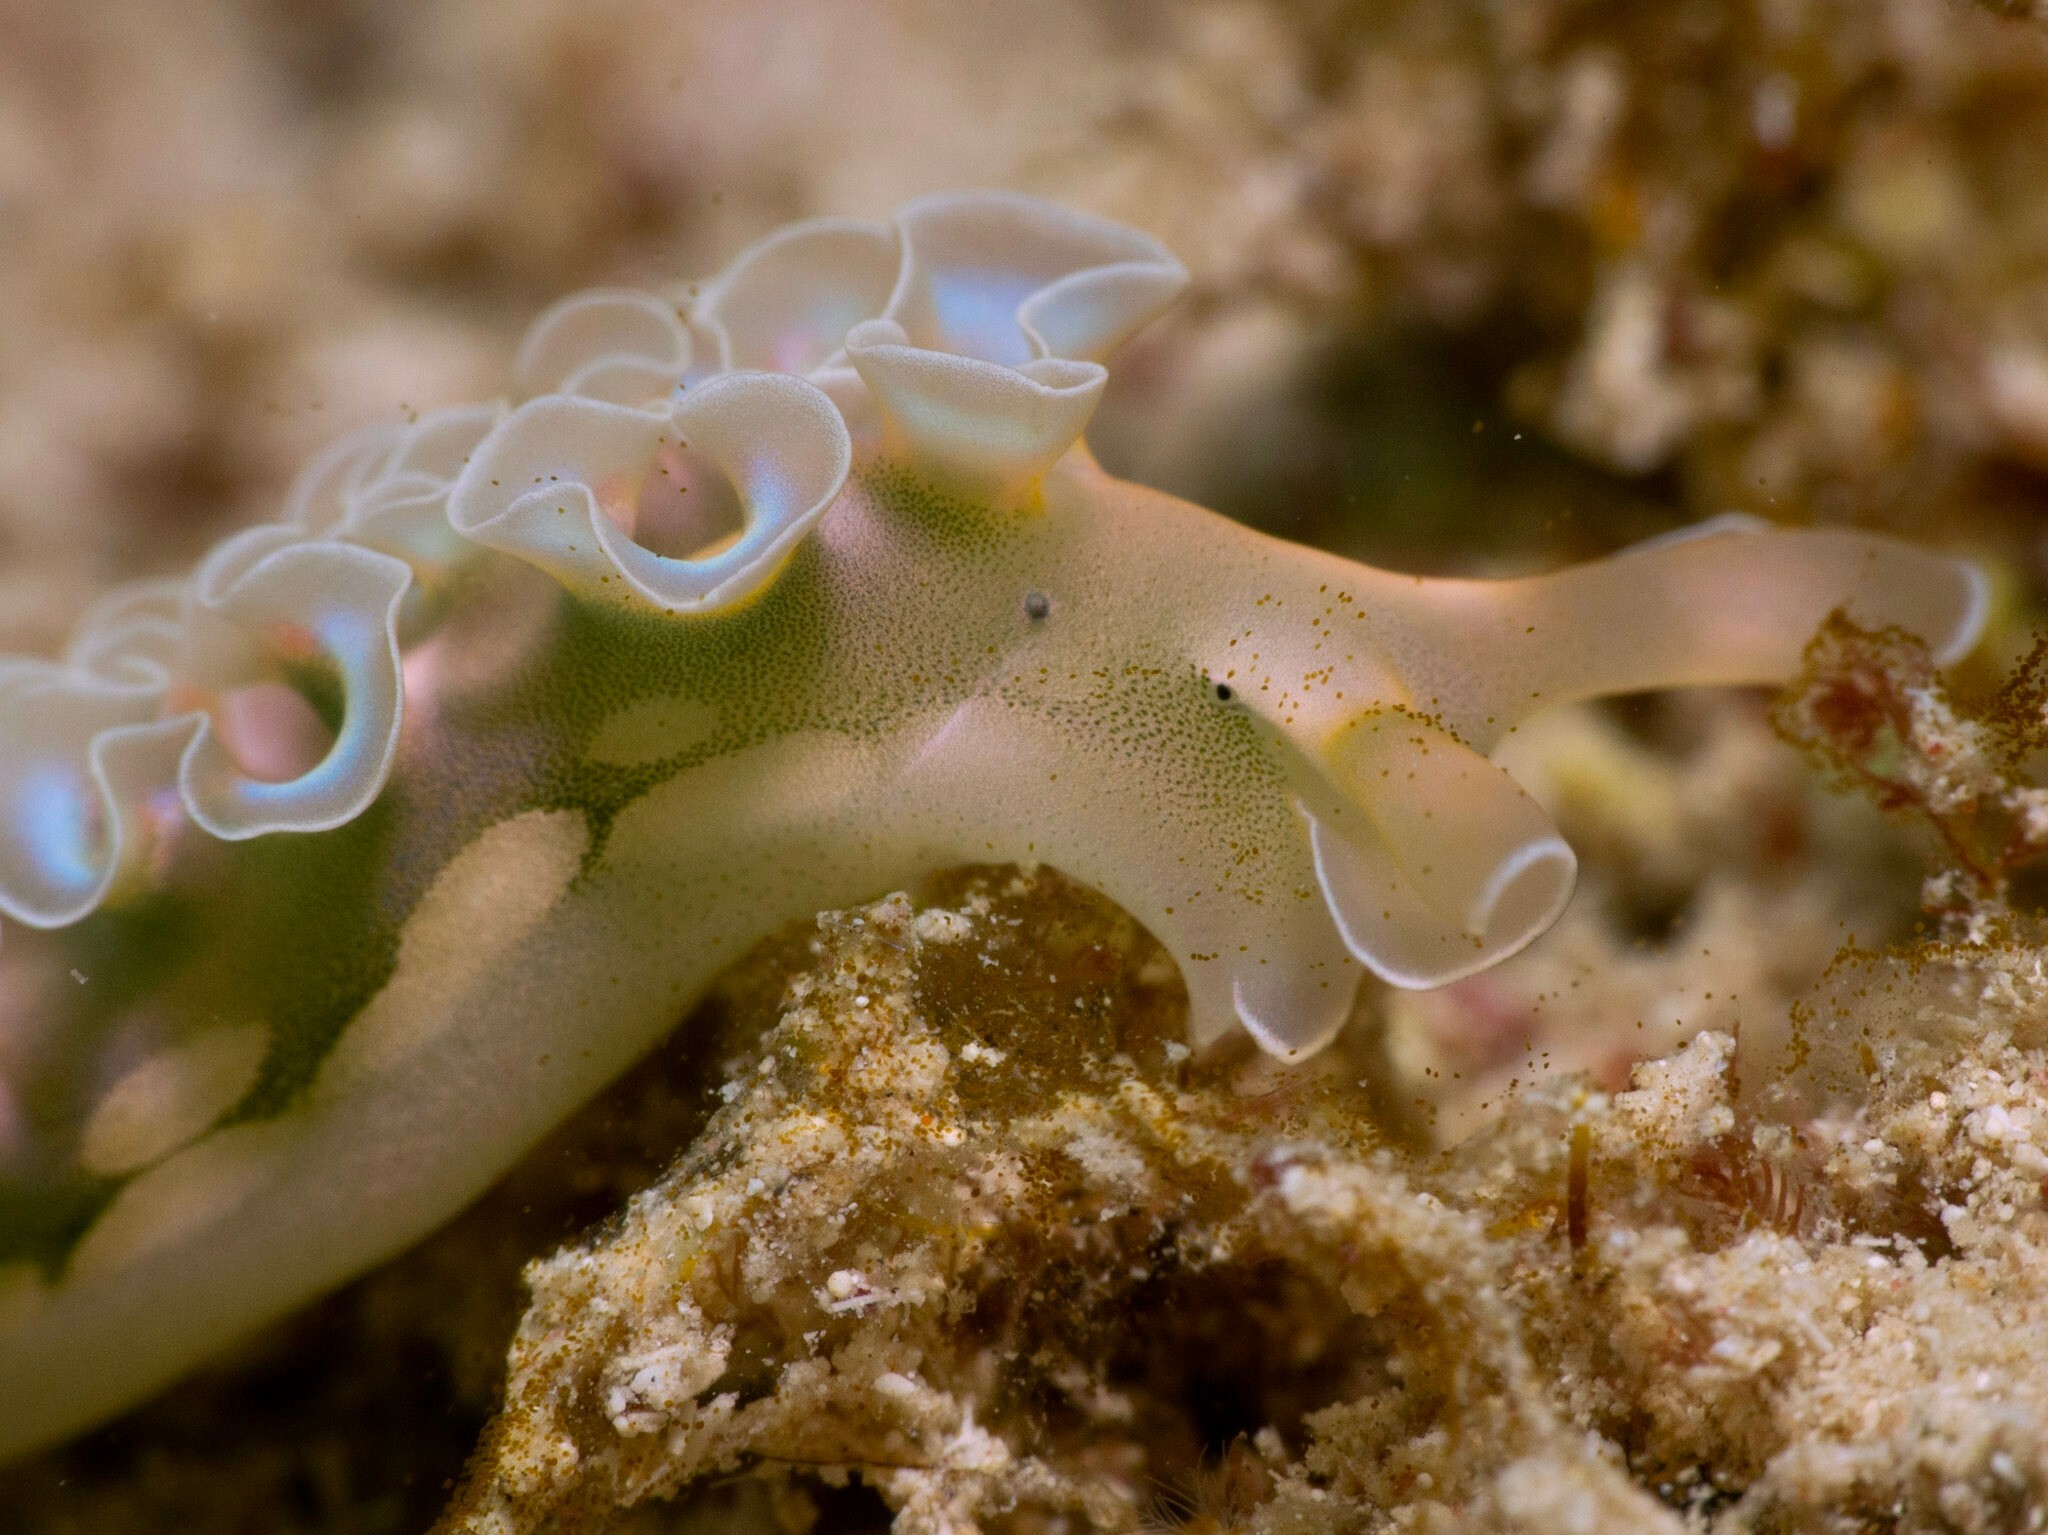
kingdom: Animalia
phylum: Mollusca
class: Gastropoda
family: Plakobranchidae
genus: Elysia
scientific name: Elysia crispata
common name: Lettuce slug
